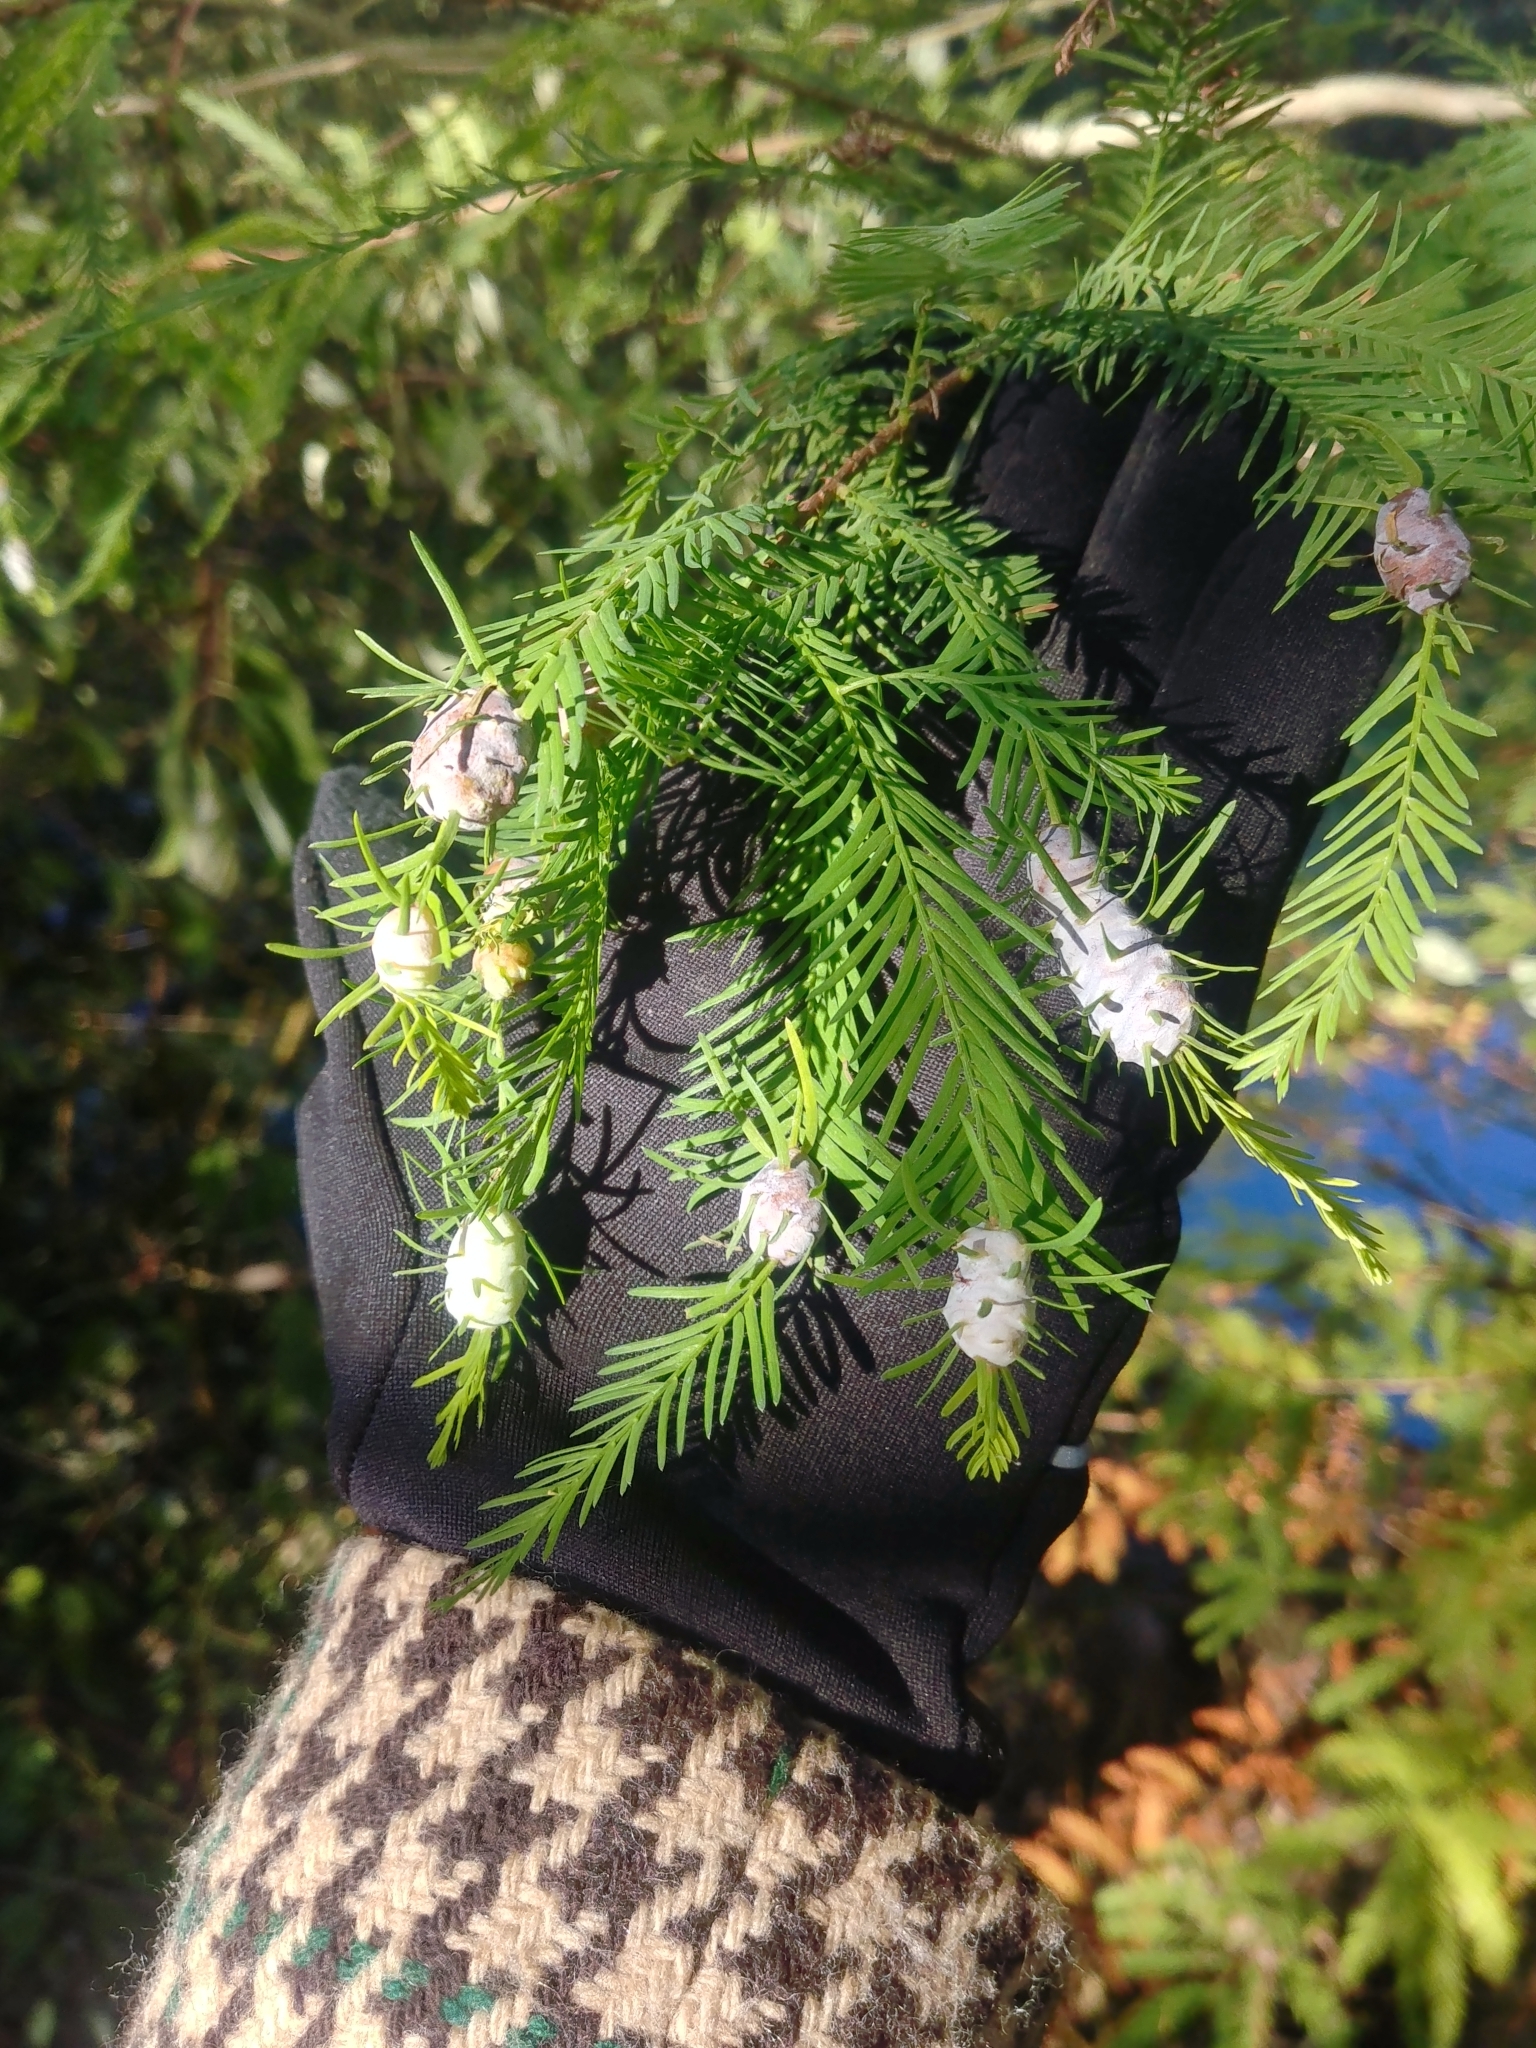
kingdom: Animalia
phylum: Arthropoda
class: Insecta
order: Diptera
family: Cecidomyiidae
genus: Taxodiomyia
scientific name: Taxodiomyia cupressiananassa
